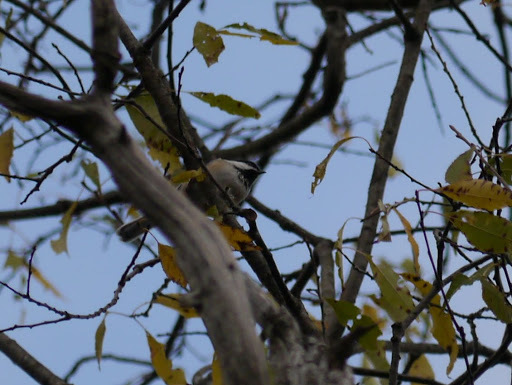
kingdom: Animalia
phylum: Chordata
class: Aves
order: Passeriformes
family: Paridae
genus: Poecile
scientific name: Poecile atricapillus
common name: Black-capped chickadee
